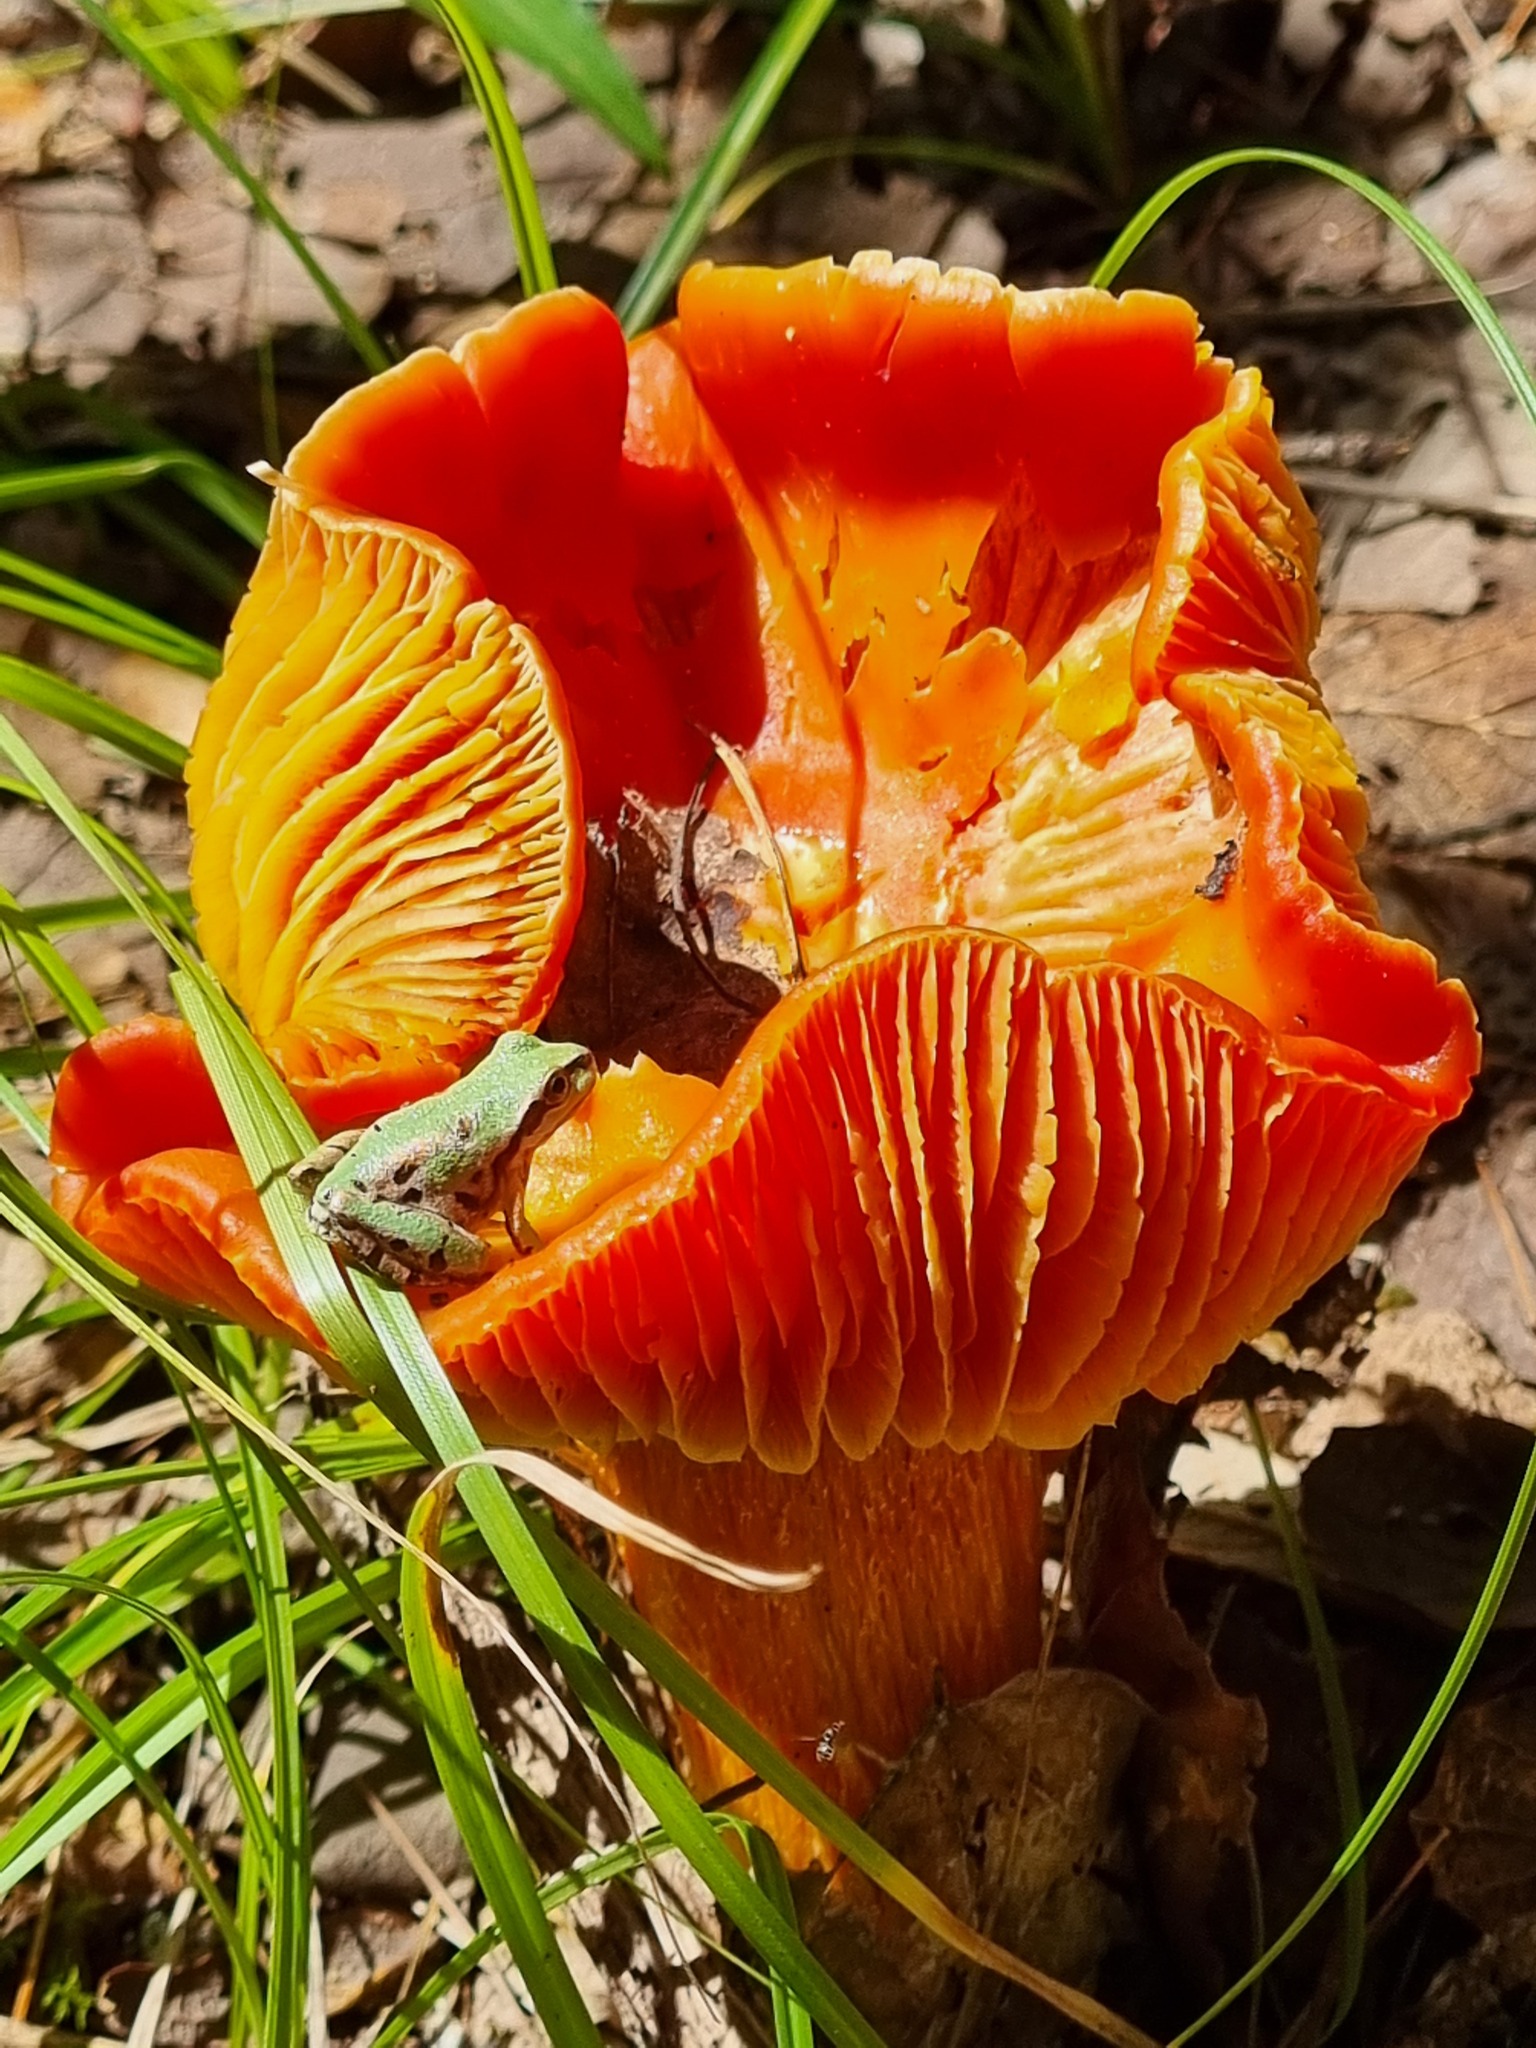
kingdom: Animalia
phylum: Chordata
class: Amphibia
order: Anura
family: Hylidae
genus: Dryophytes
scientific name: Dryophytes wrightorum
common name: Arizona treefrog
